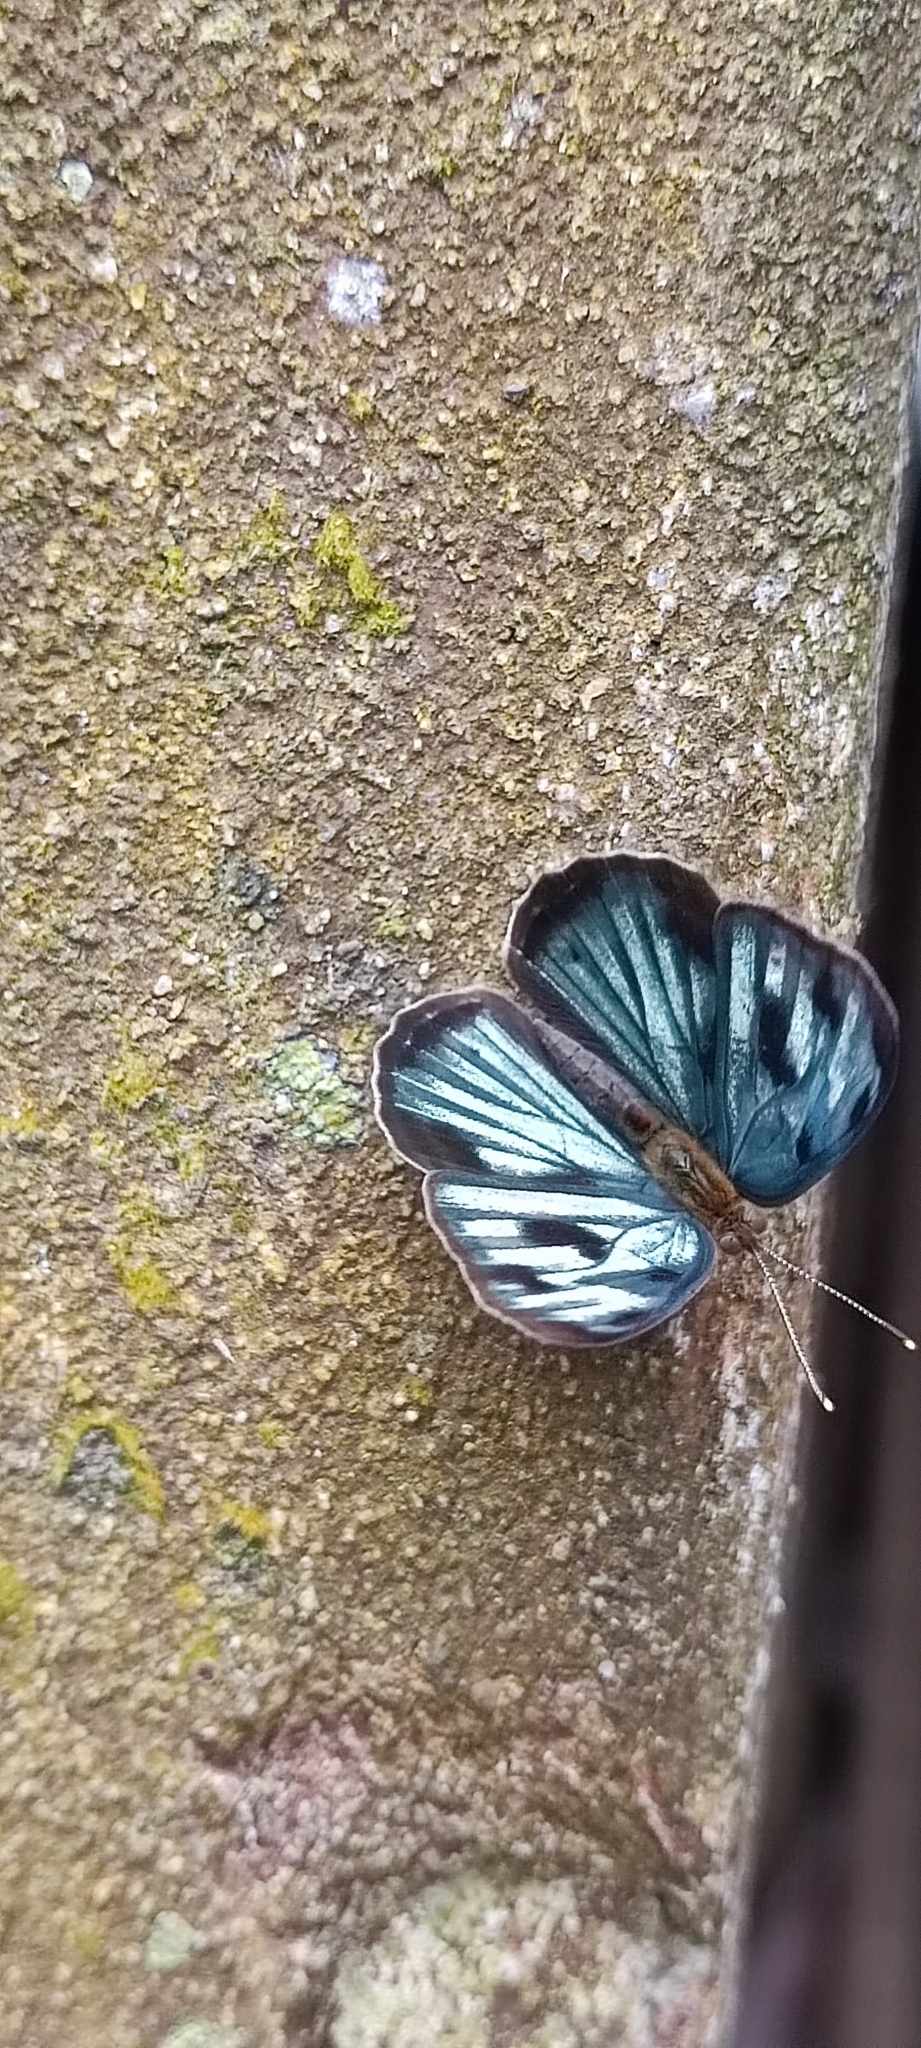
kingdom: Animalia
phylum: Arthropoda
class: Insecta
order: Lepidoptera
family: Nymphalidae
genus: Dynamine
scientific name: Dynamine mylitta
